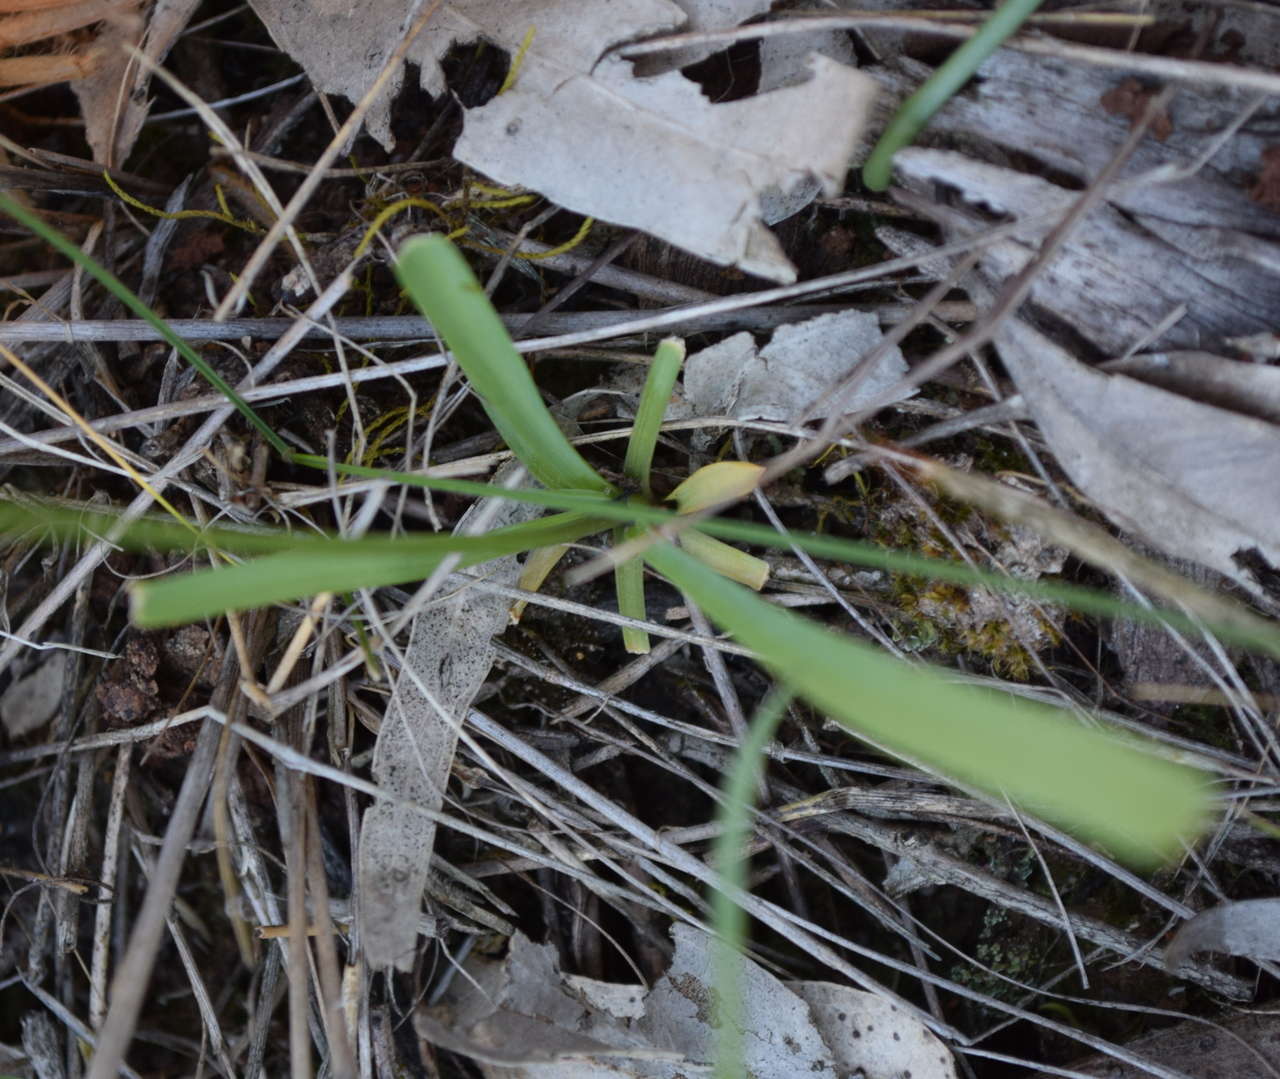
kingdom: Plantae
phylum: Tracheophyta
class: Liliopsida
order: Asparagales
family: Asparagaceae
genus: Arthropodium
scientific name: Arthropodium minus
